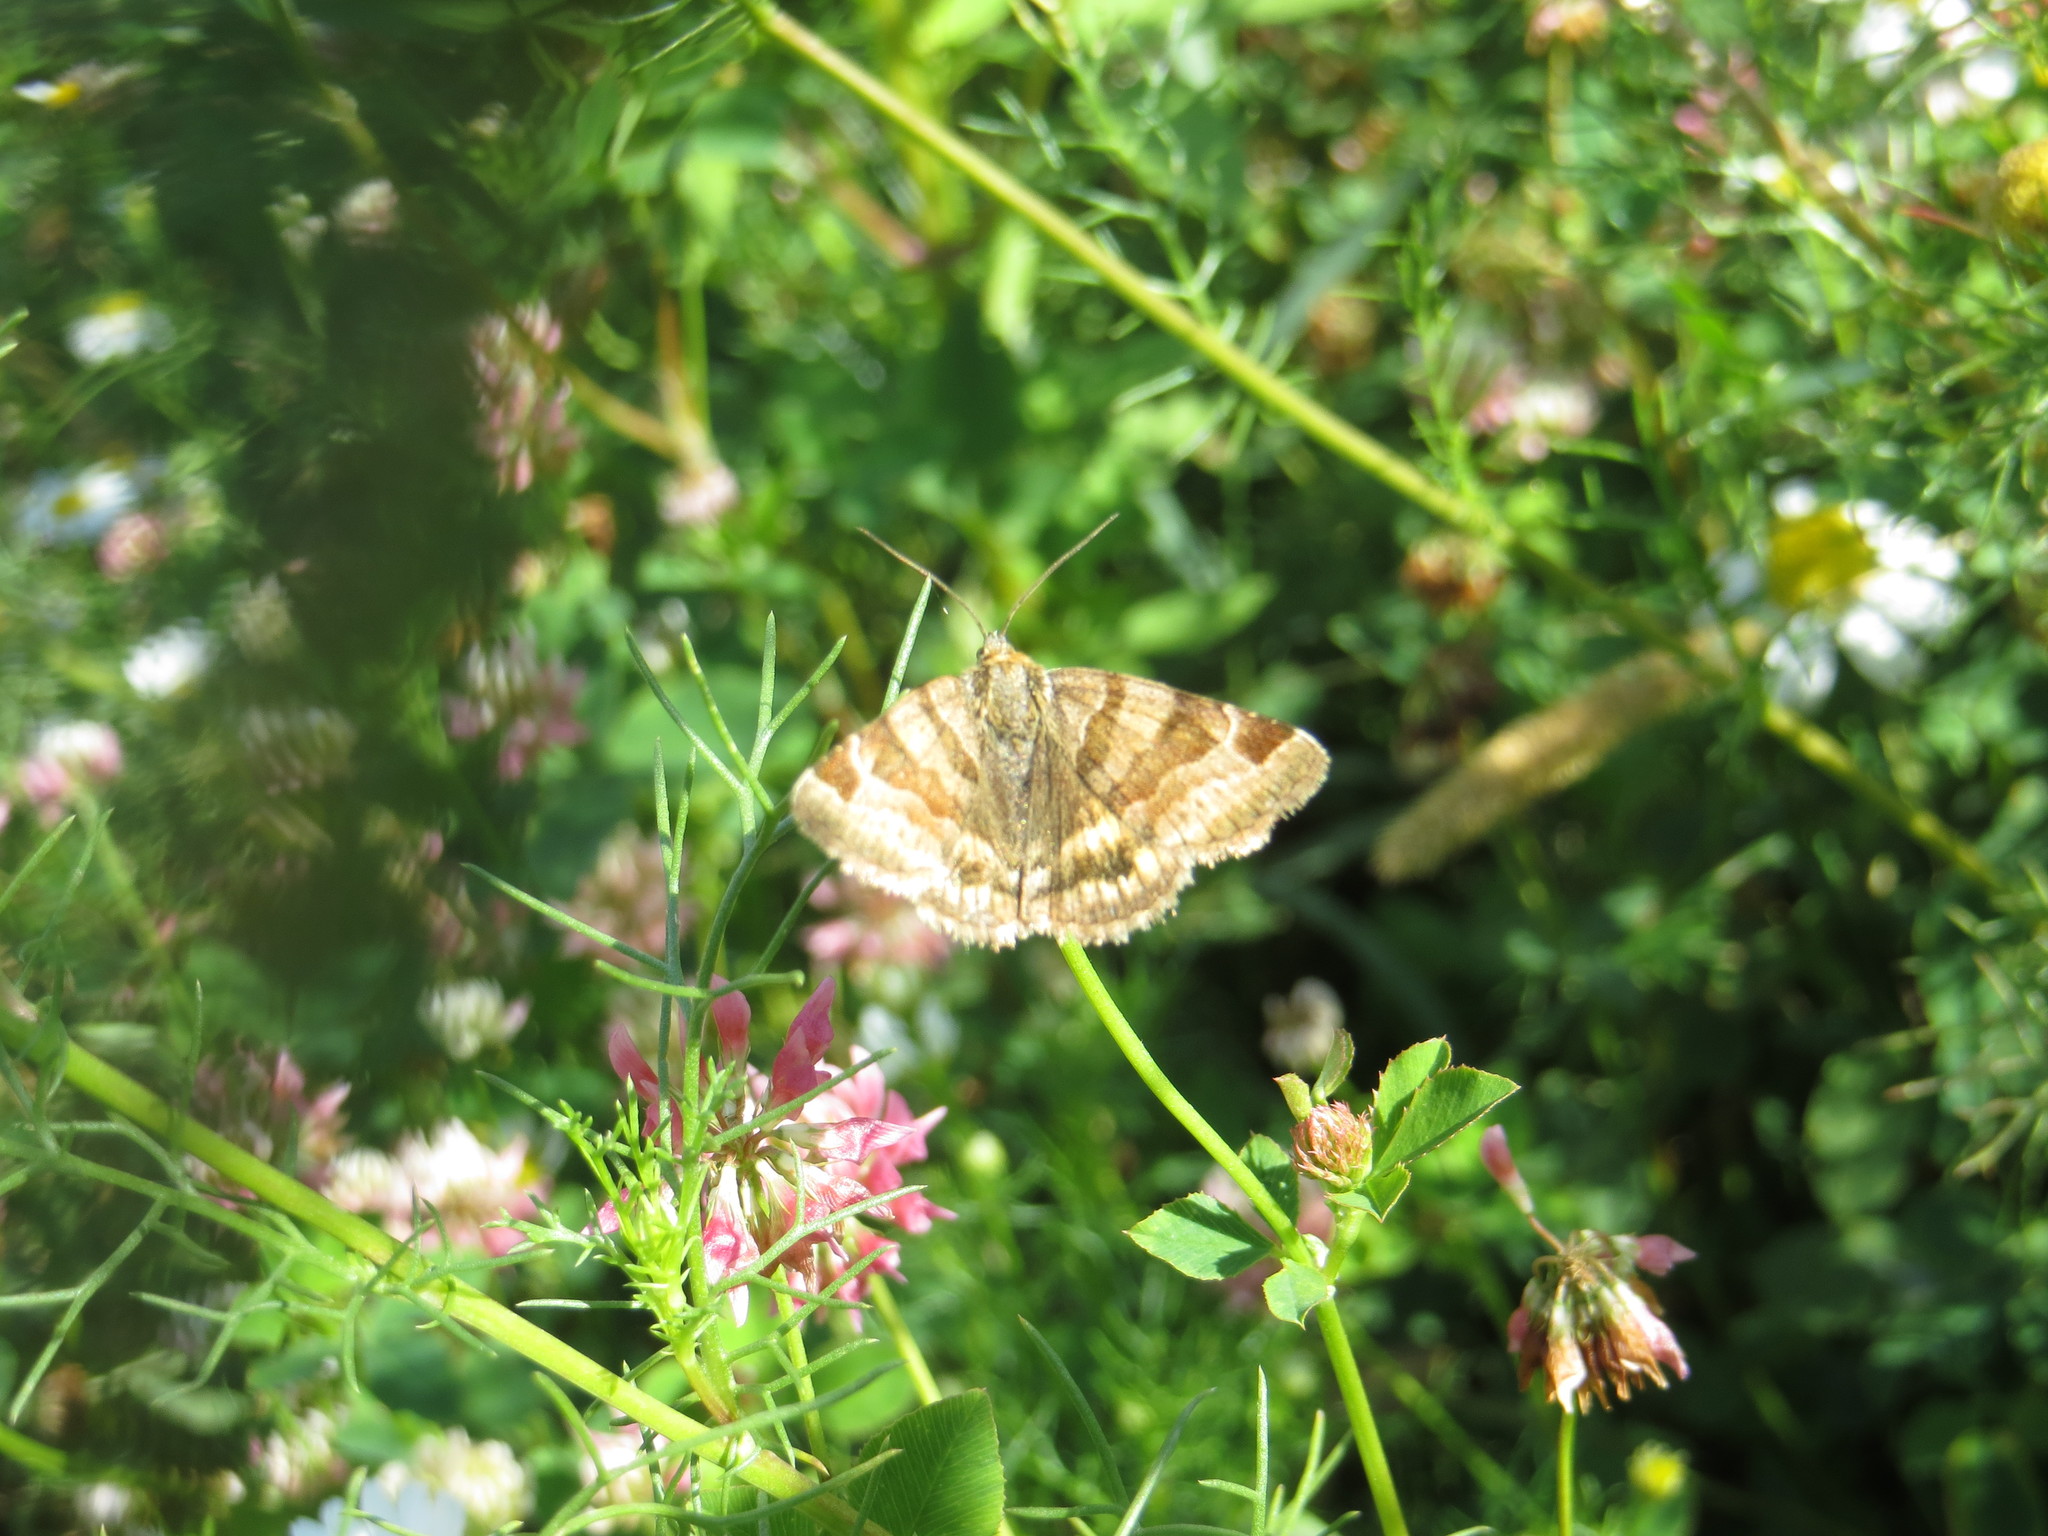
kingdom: Animalia
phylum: Arthropoda
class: Insecta
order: Lepidoptera
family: Erebidae
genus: Euclidia
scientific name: Euclidia glyphica
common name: Burnet companion
